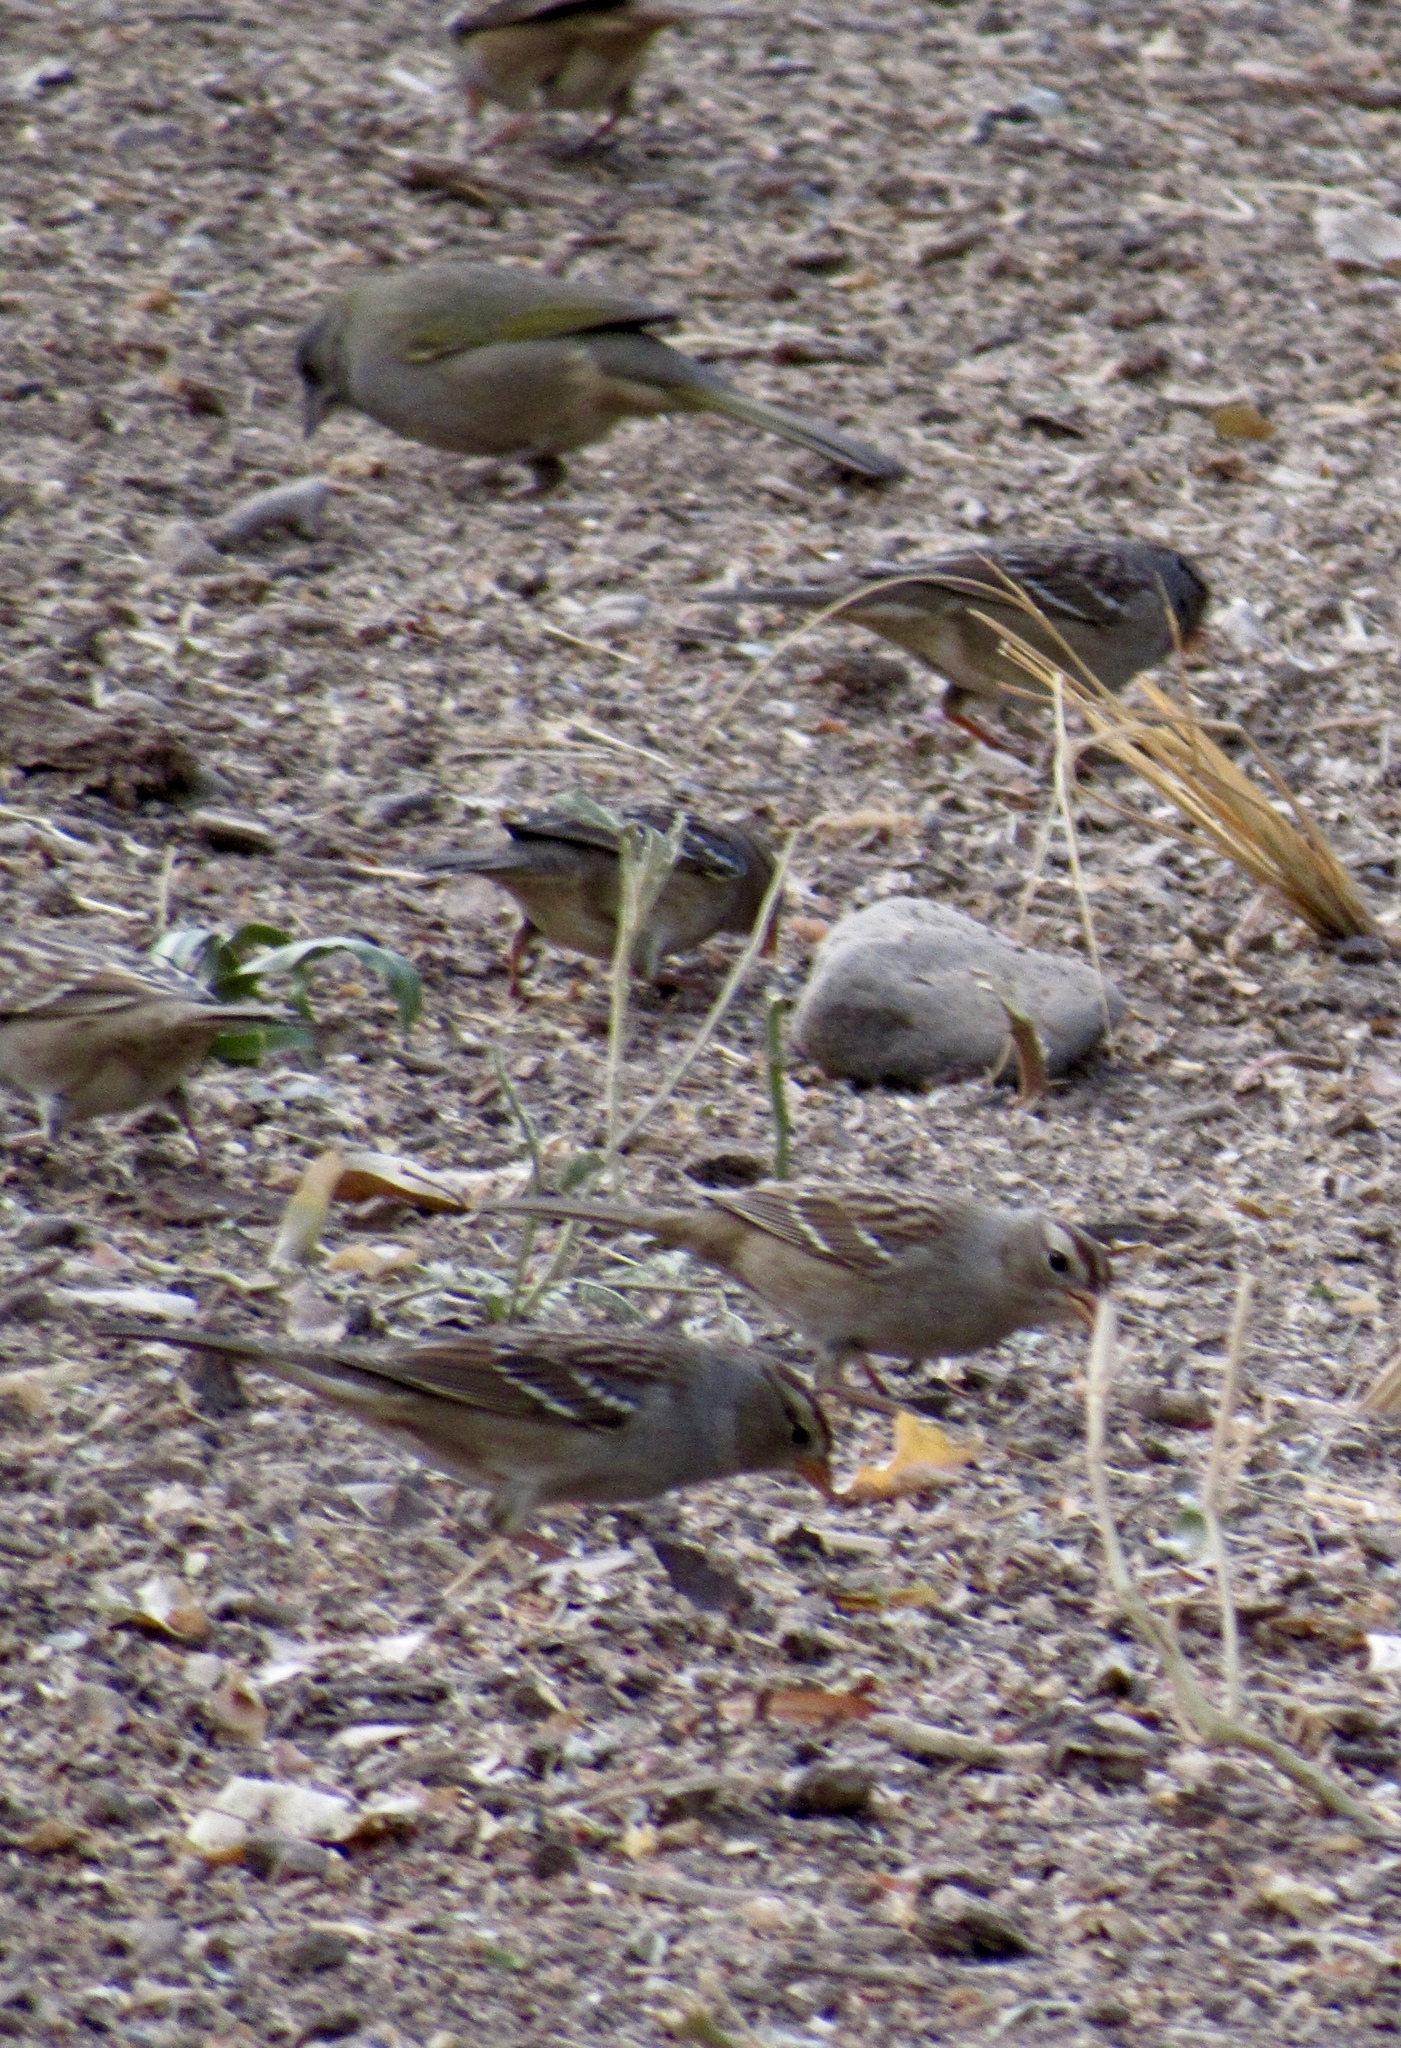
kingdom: Animalia
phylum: Chordata
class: Aves
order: Passeriformes
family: Passerellidae
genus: Zonotrichia
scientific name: Zonotrichia leucophrys
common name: White-crowned sparrow
